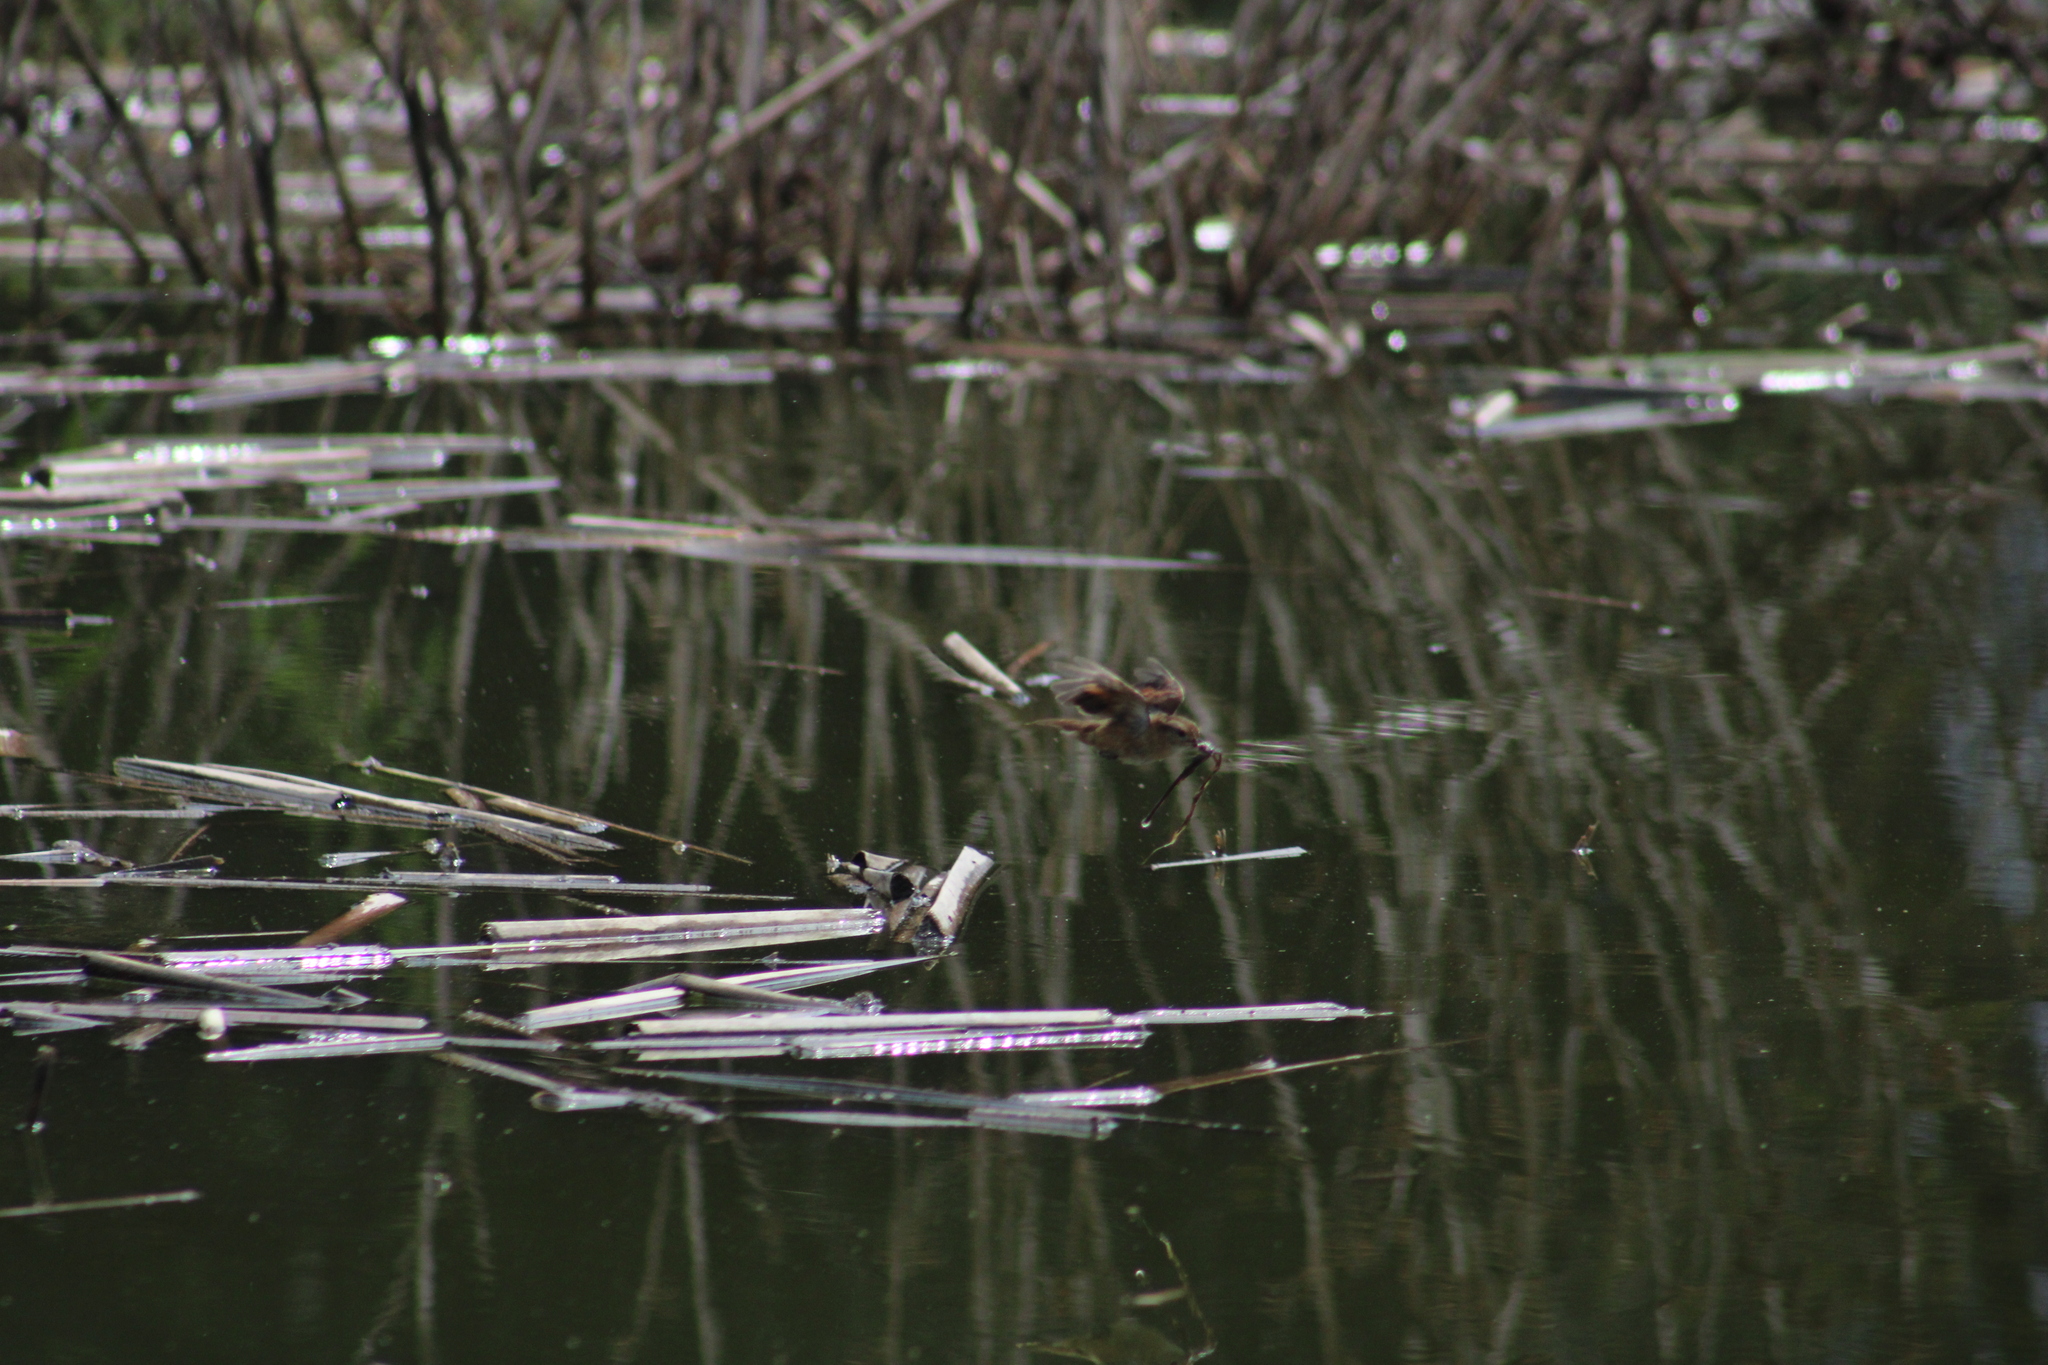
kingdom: Animalia
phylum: Chordata
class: Aves
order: Passeriformes
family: Furnariidae
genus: Phleocryptes
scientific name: Phleocryptes melanops
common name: Wren-like rushbird
